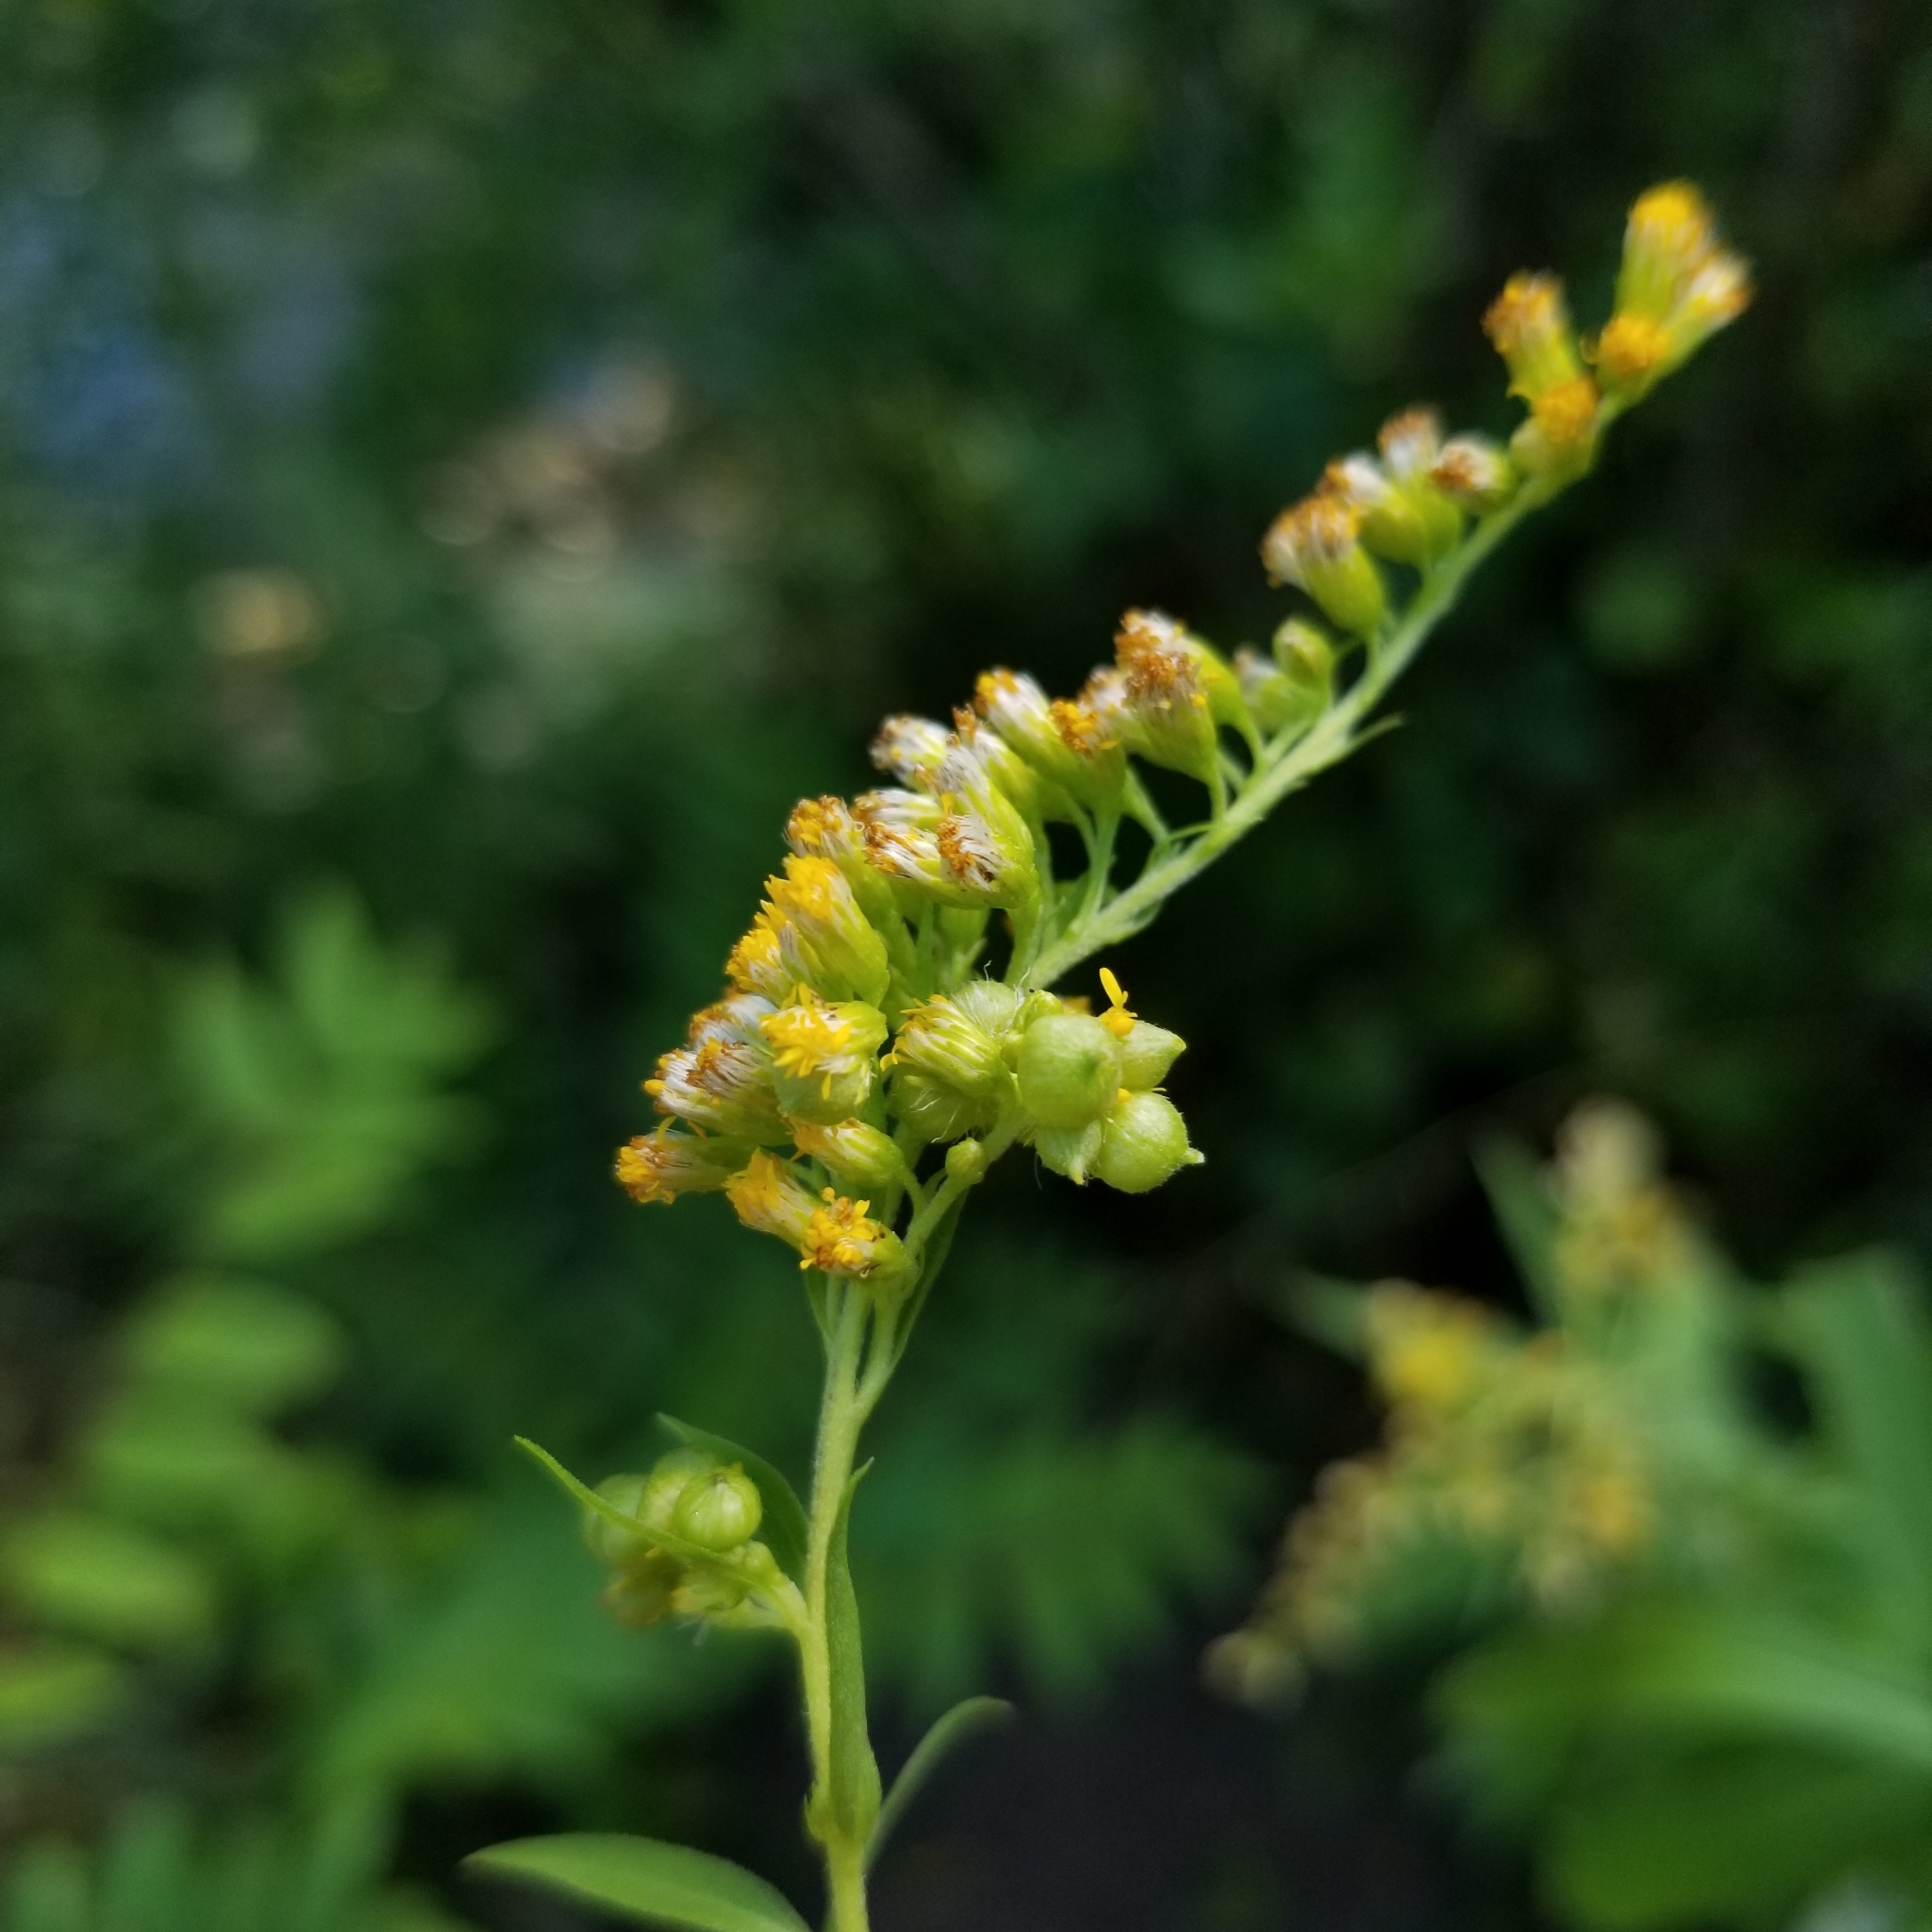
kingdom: Animalia
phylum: Arthropoda
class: Insecta
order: Diptera
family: Cecidomyiidae
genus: Schizomyia
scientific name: Schizomyia racemicola
